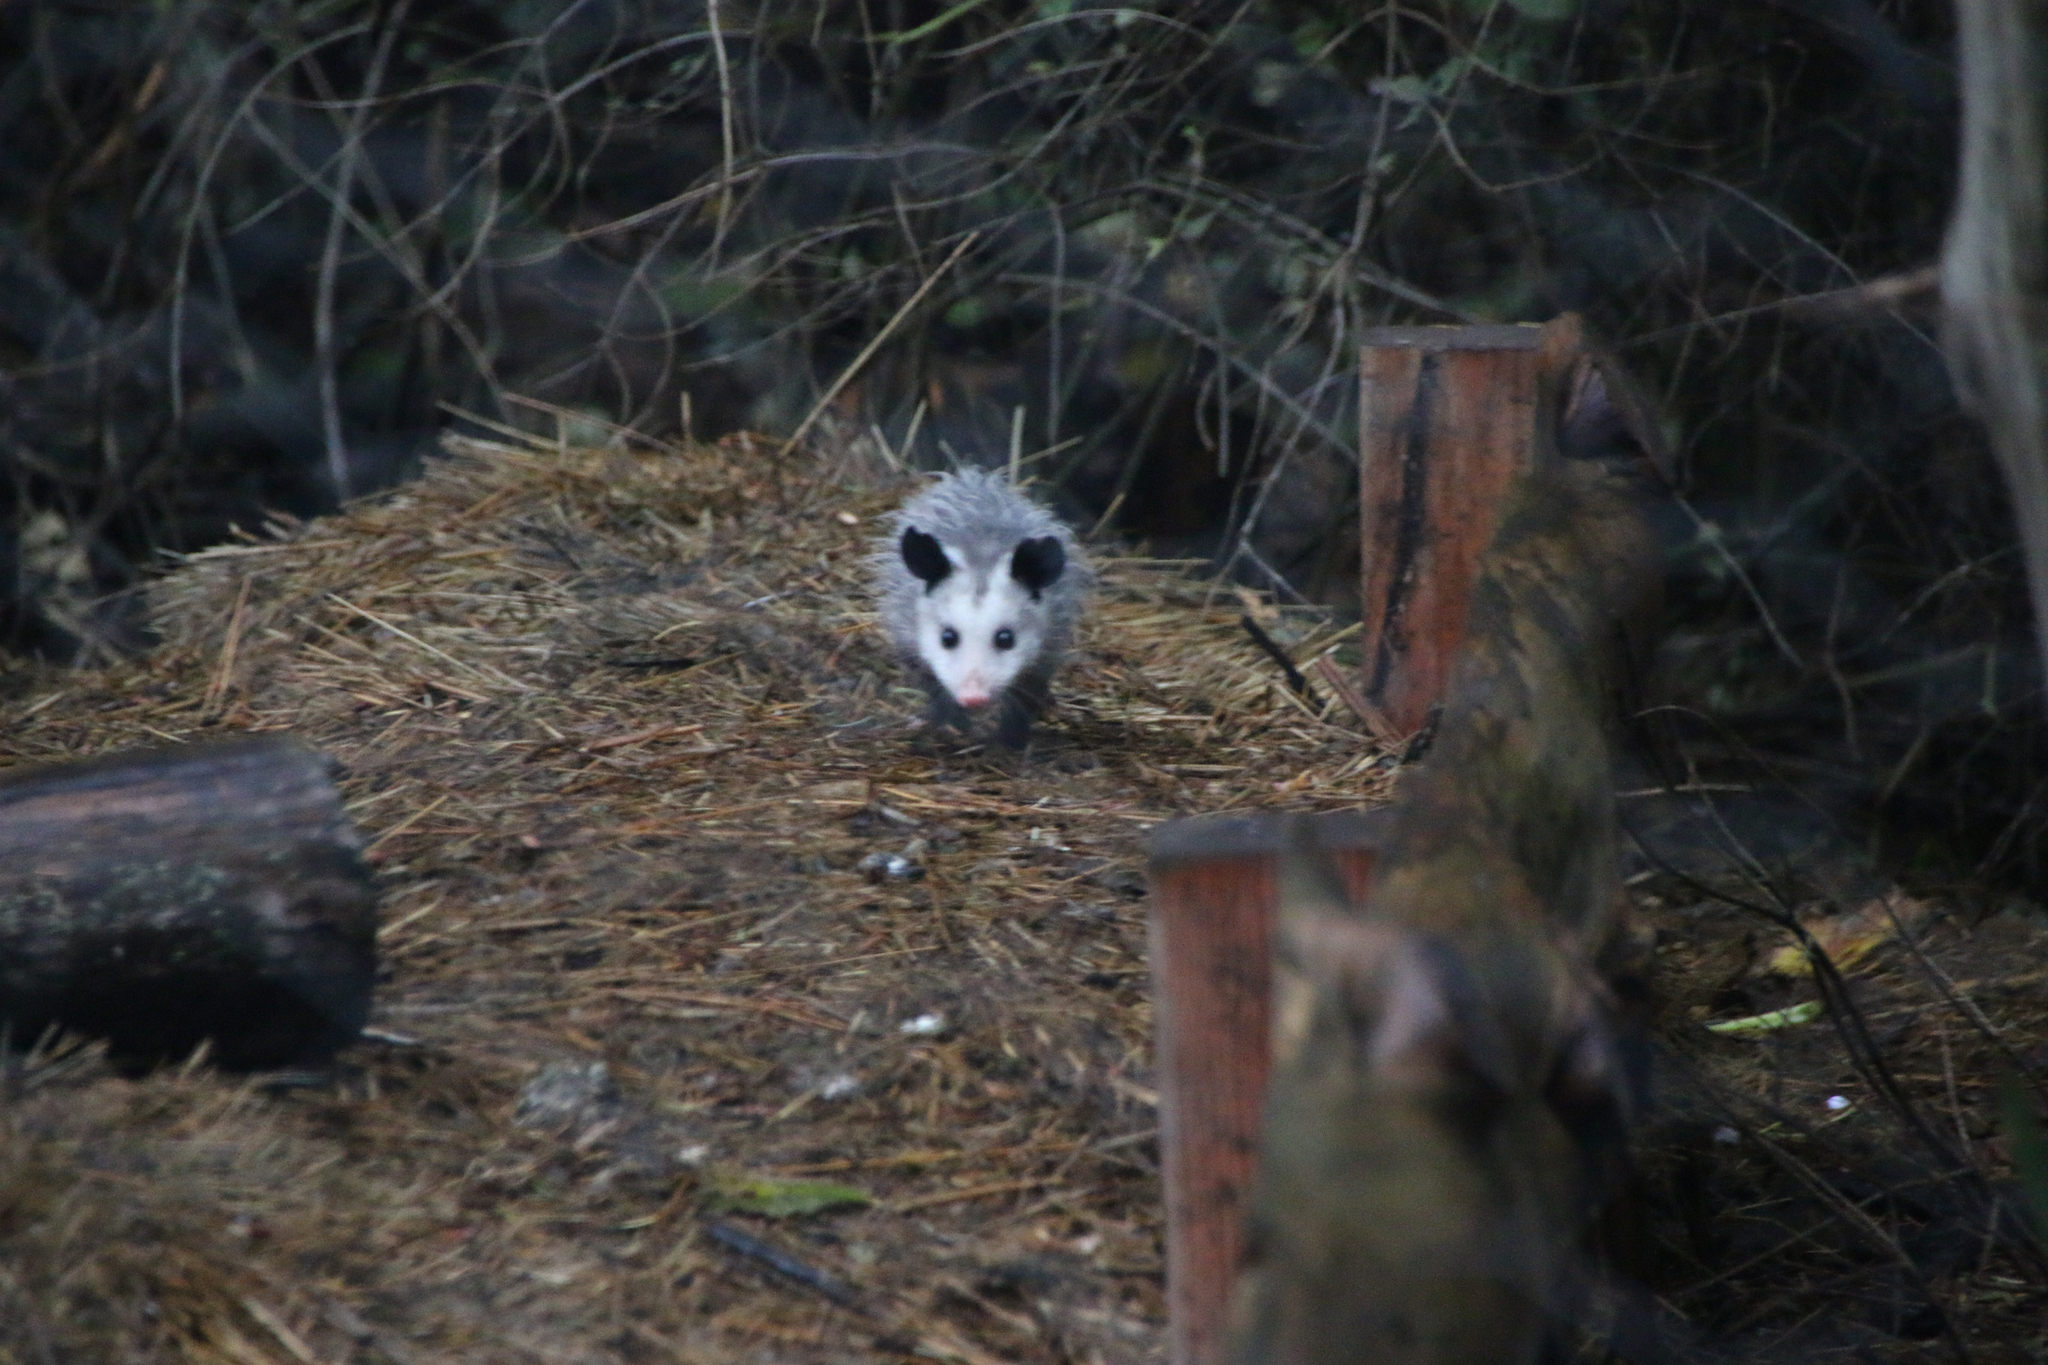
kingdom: Animalia
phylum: Chordata
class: Mammalia
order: Didelphimorphia
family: Didelphidae
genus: Didelphis
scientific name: Didelphis virginiana
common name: Virginia opossum
